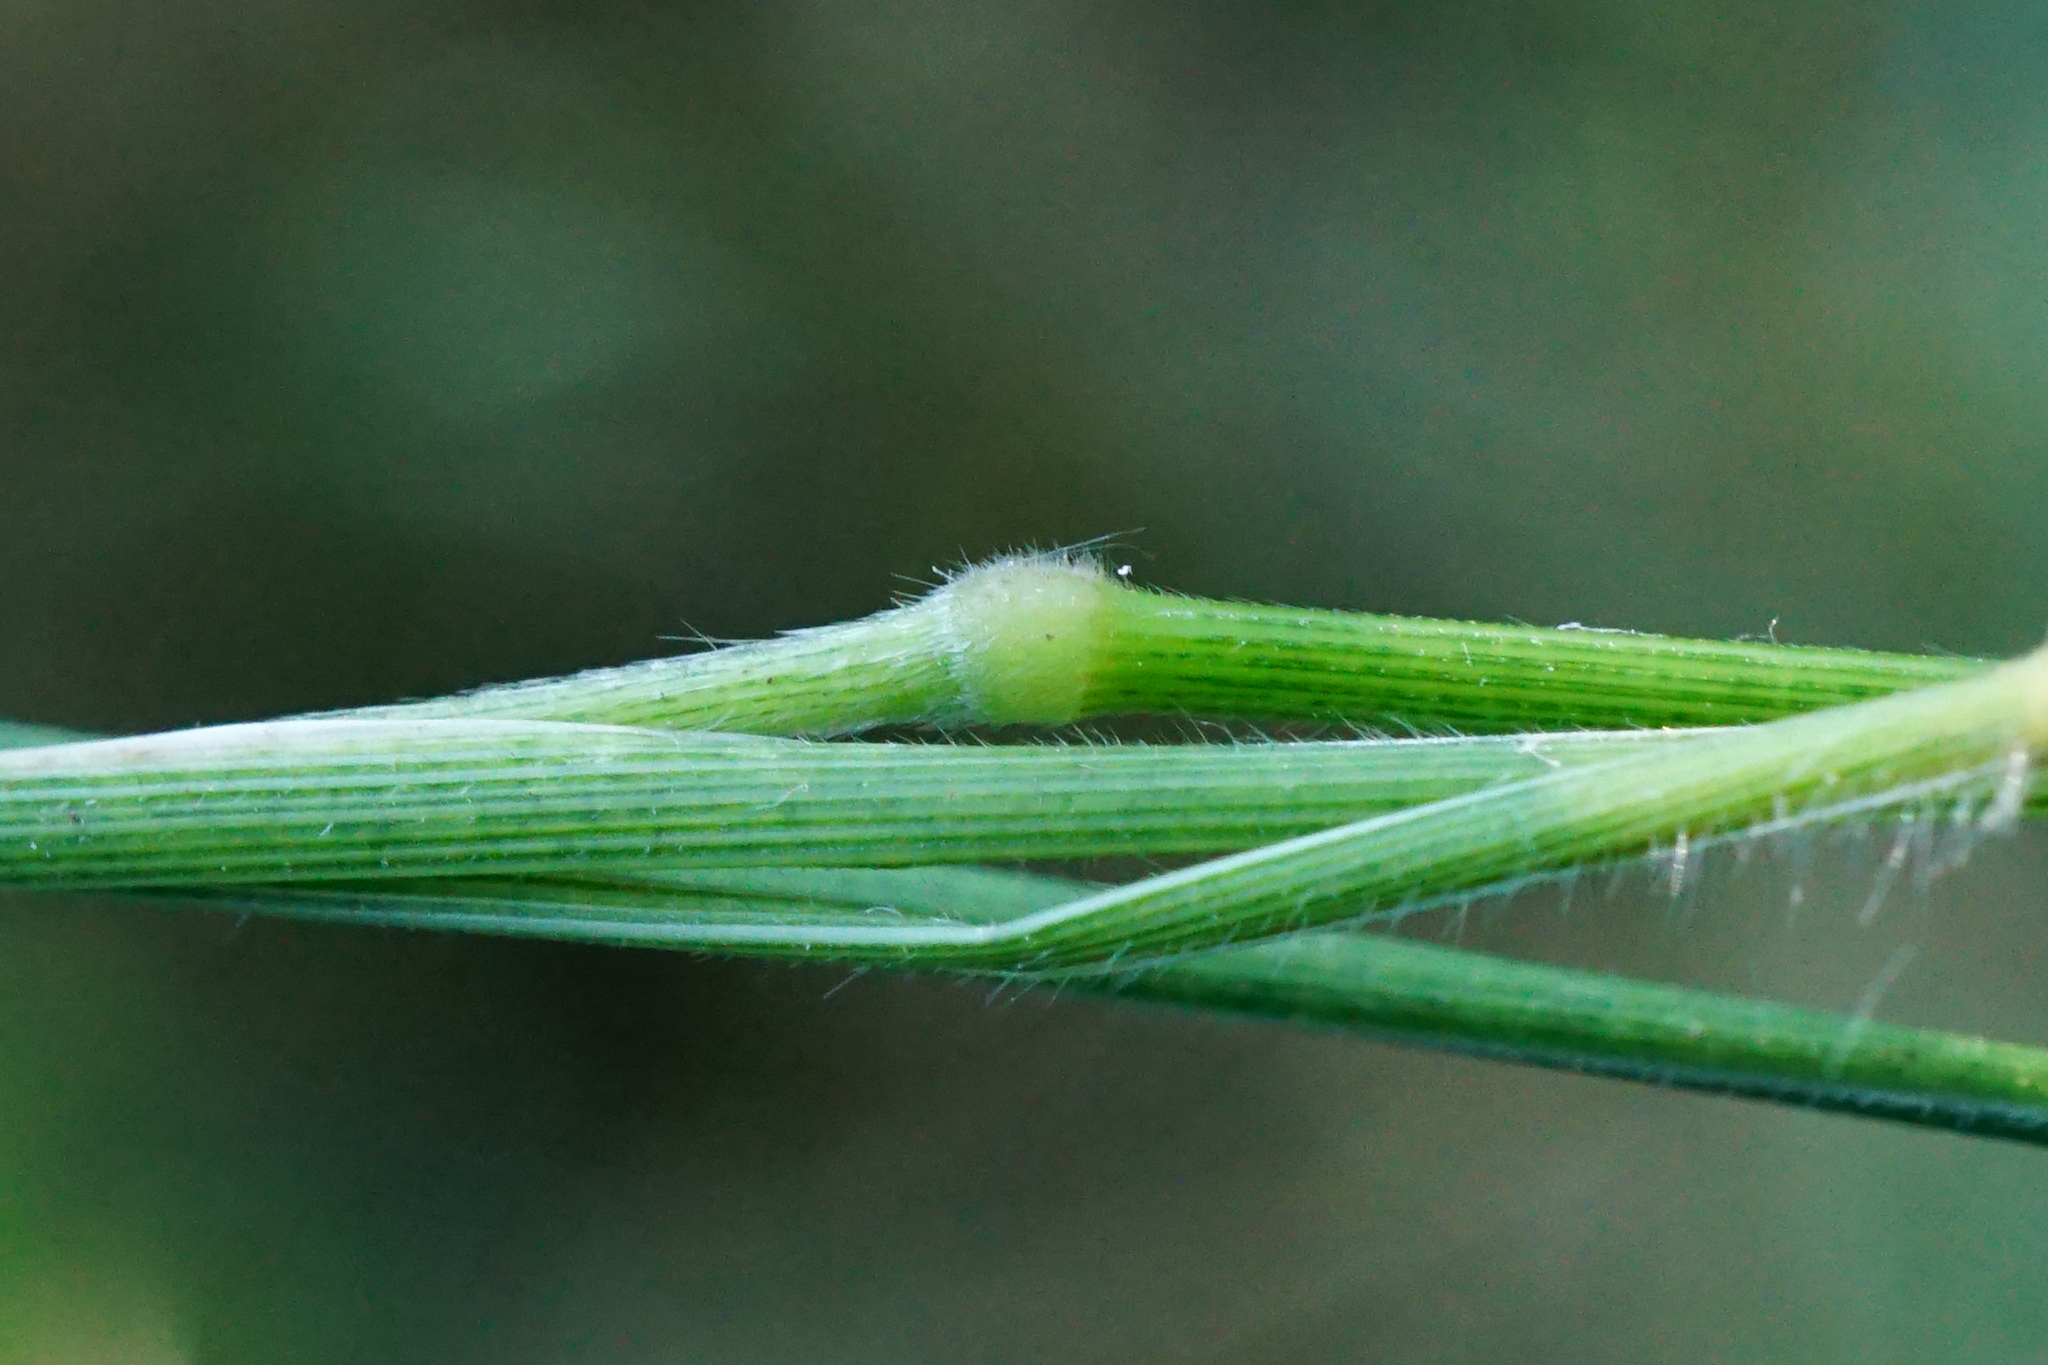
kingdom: Plantae
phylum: Tracheophyta
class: Liliopsida
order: Poales
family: Poaceae
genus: Brachypodium
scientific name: Brachypodium sylvaticum
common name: False-brome
